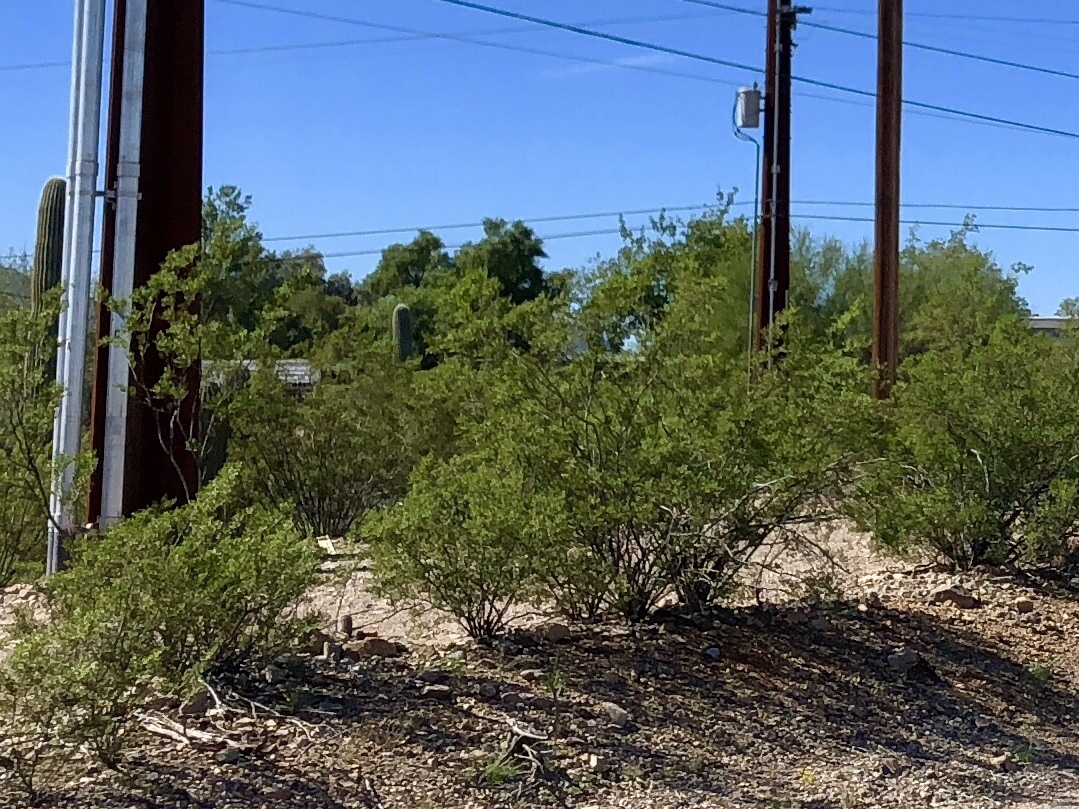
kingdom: Plantae
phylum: Tracheophyta
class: Magnoliopsida
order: Zygophyllales
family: Zygophyllaceae
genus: Larrea
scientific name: Larrea tridentata
